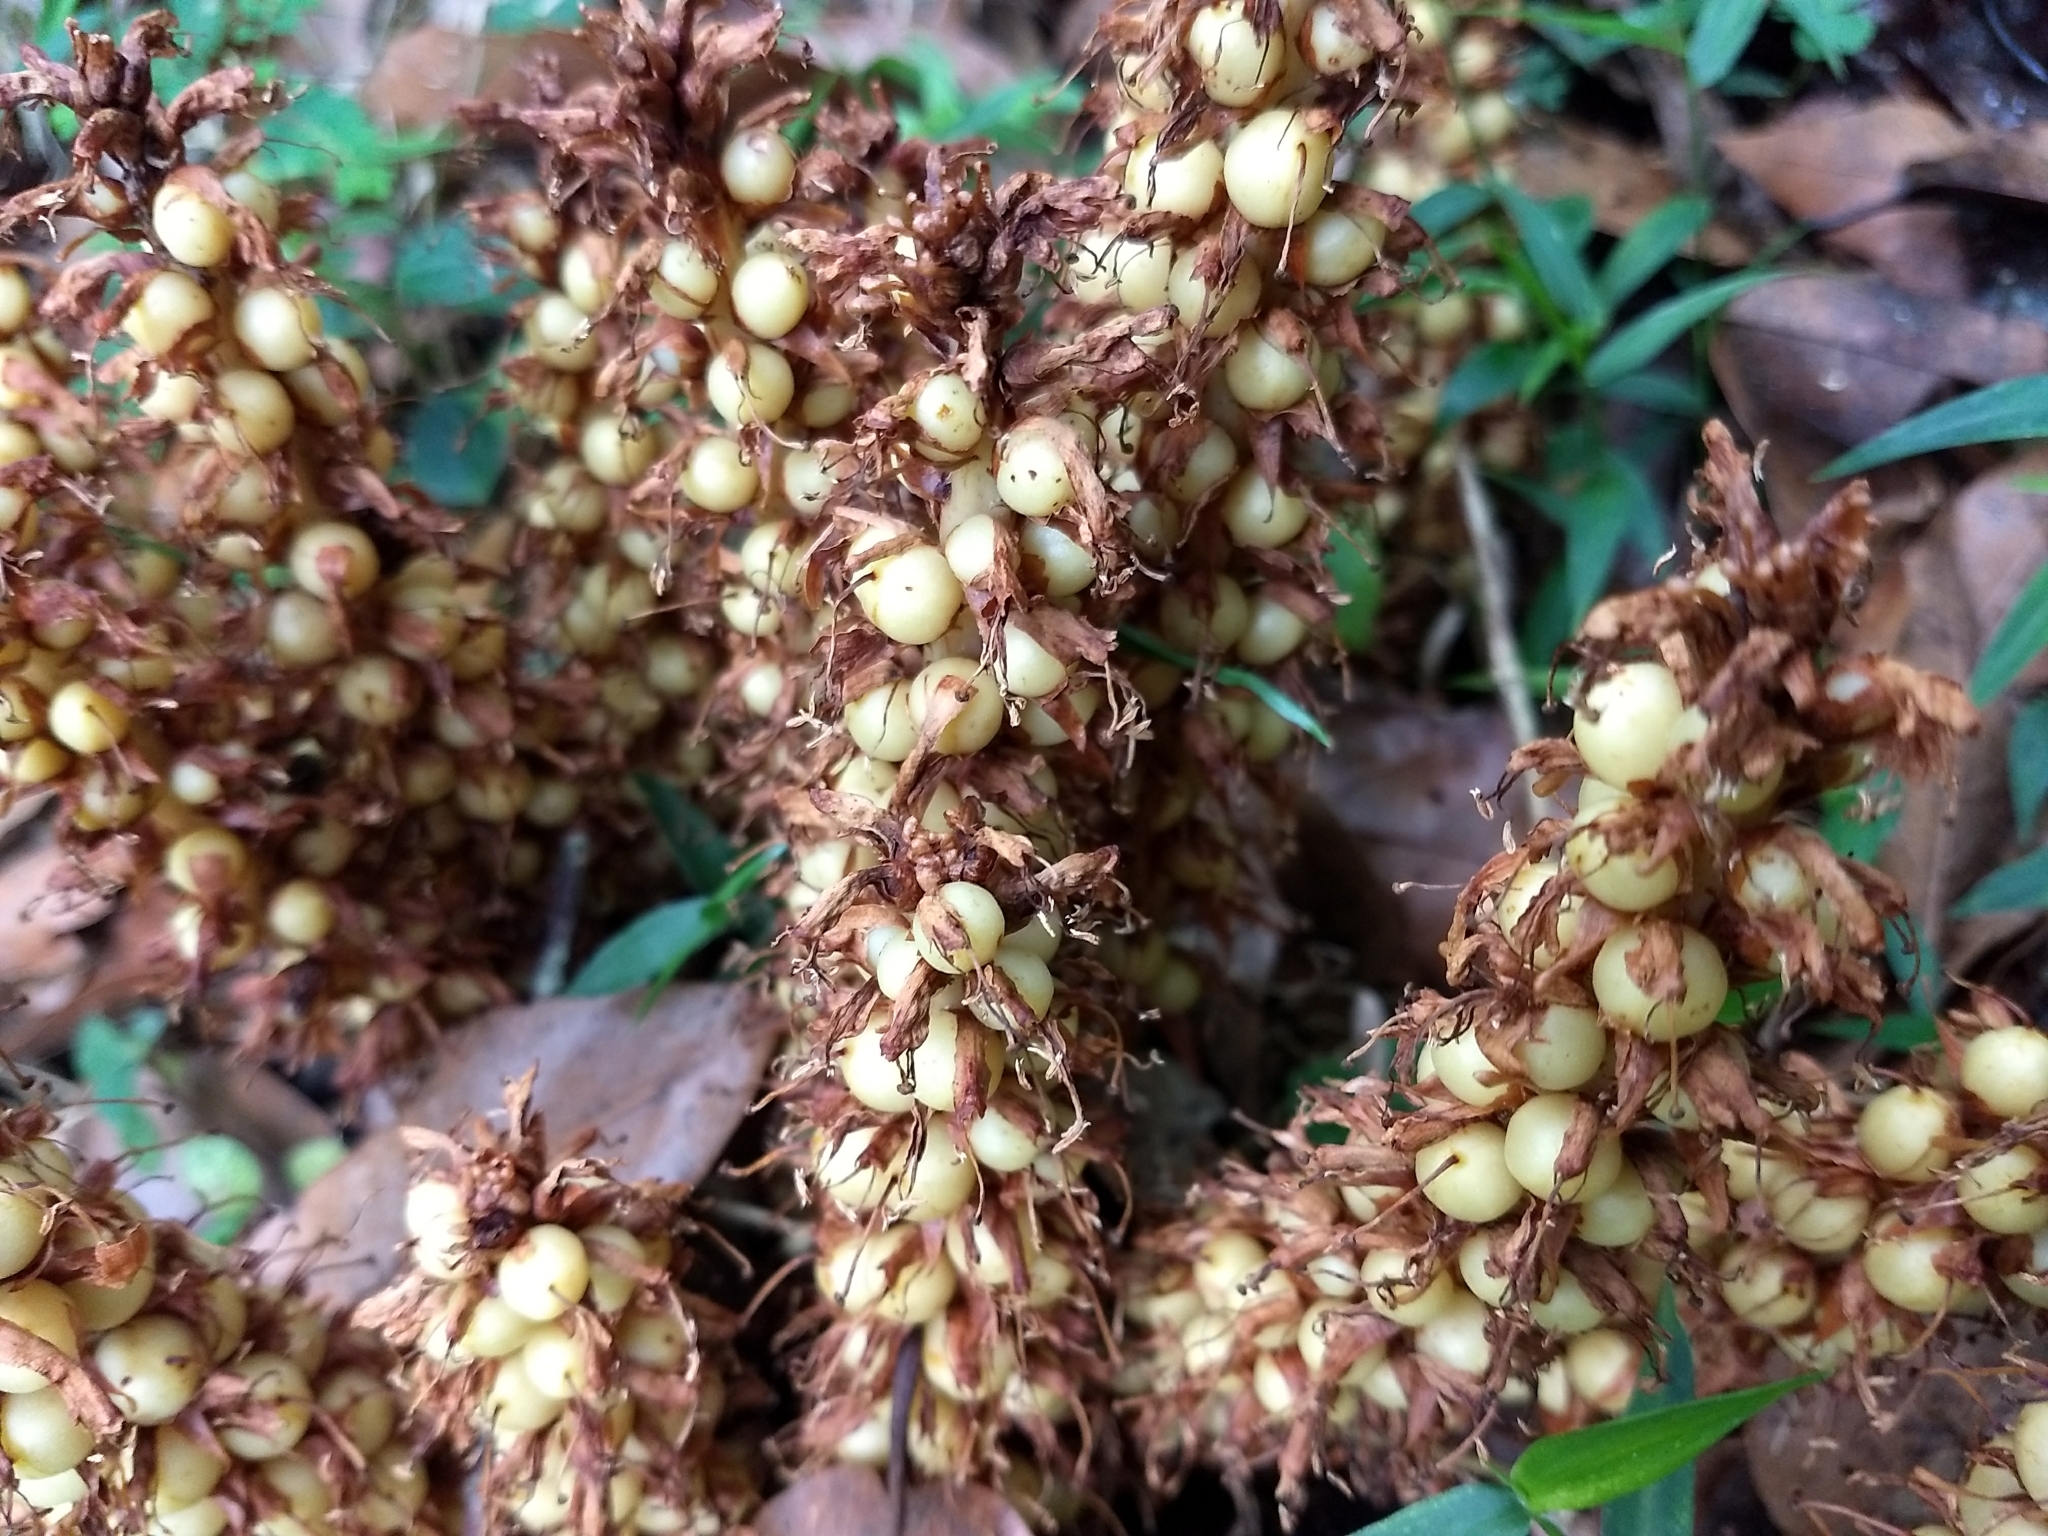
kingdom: Plantae
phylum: Tracheophyta
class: Magnoliopsida
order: Lamiales
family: Orobanchaceae
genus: Conopholis
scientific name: Conopholis alpina
